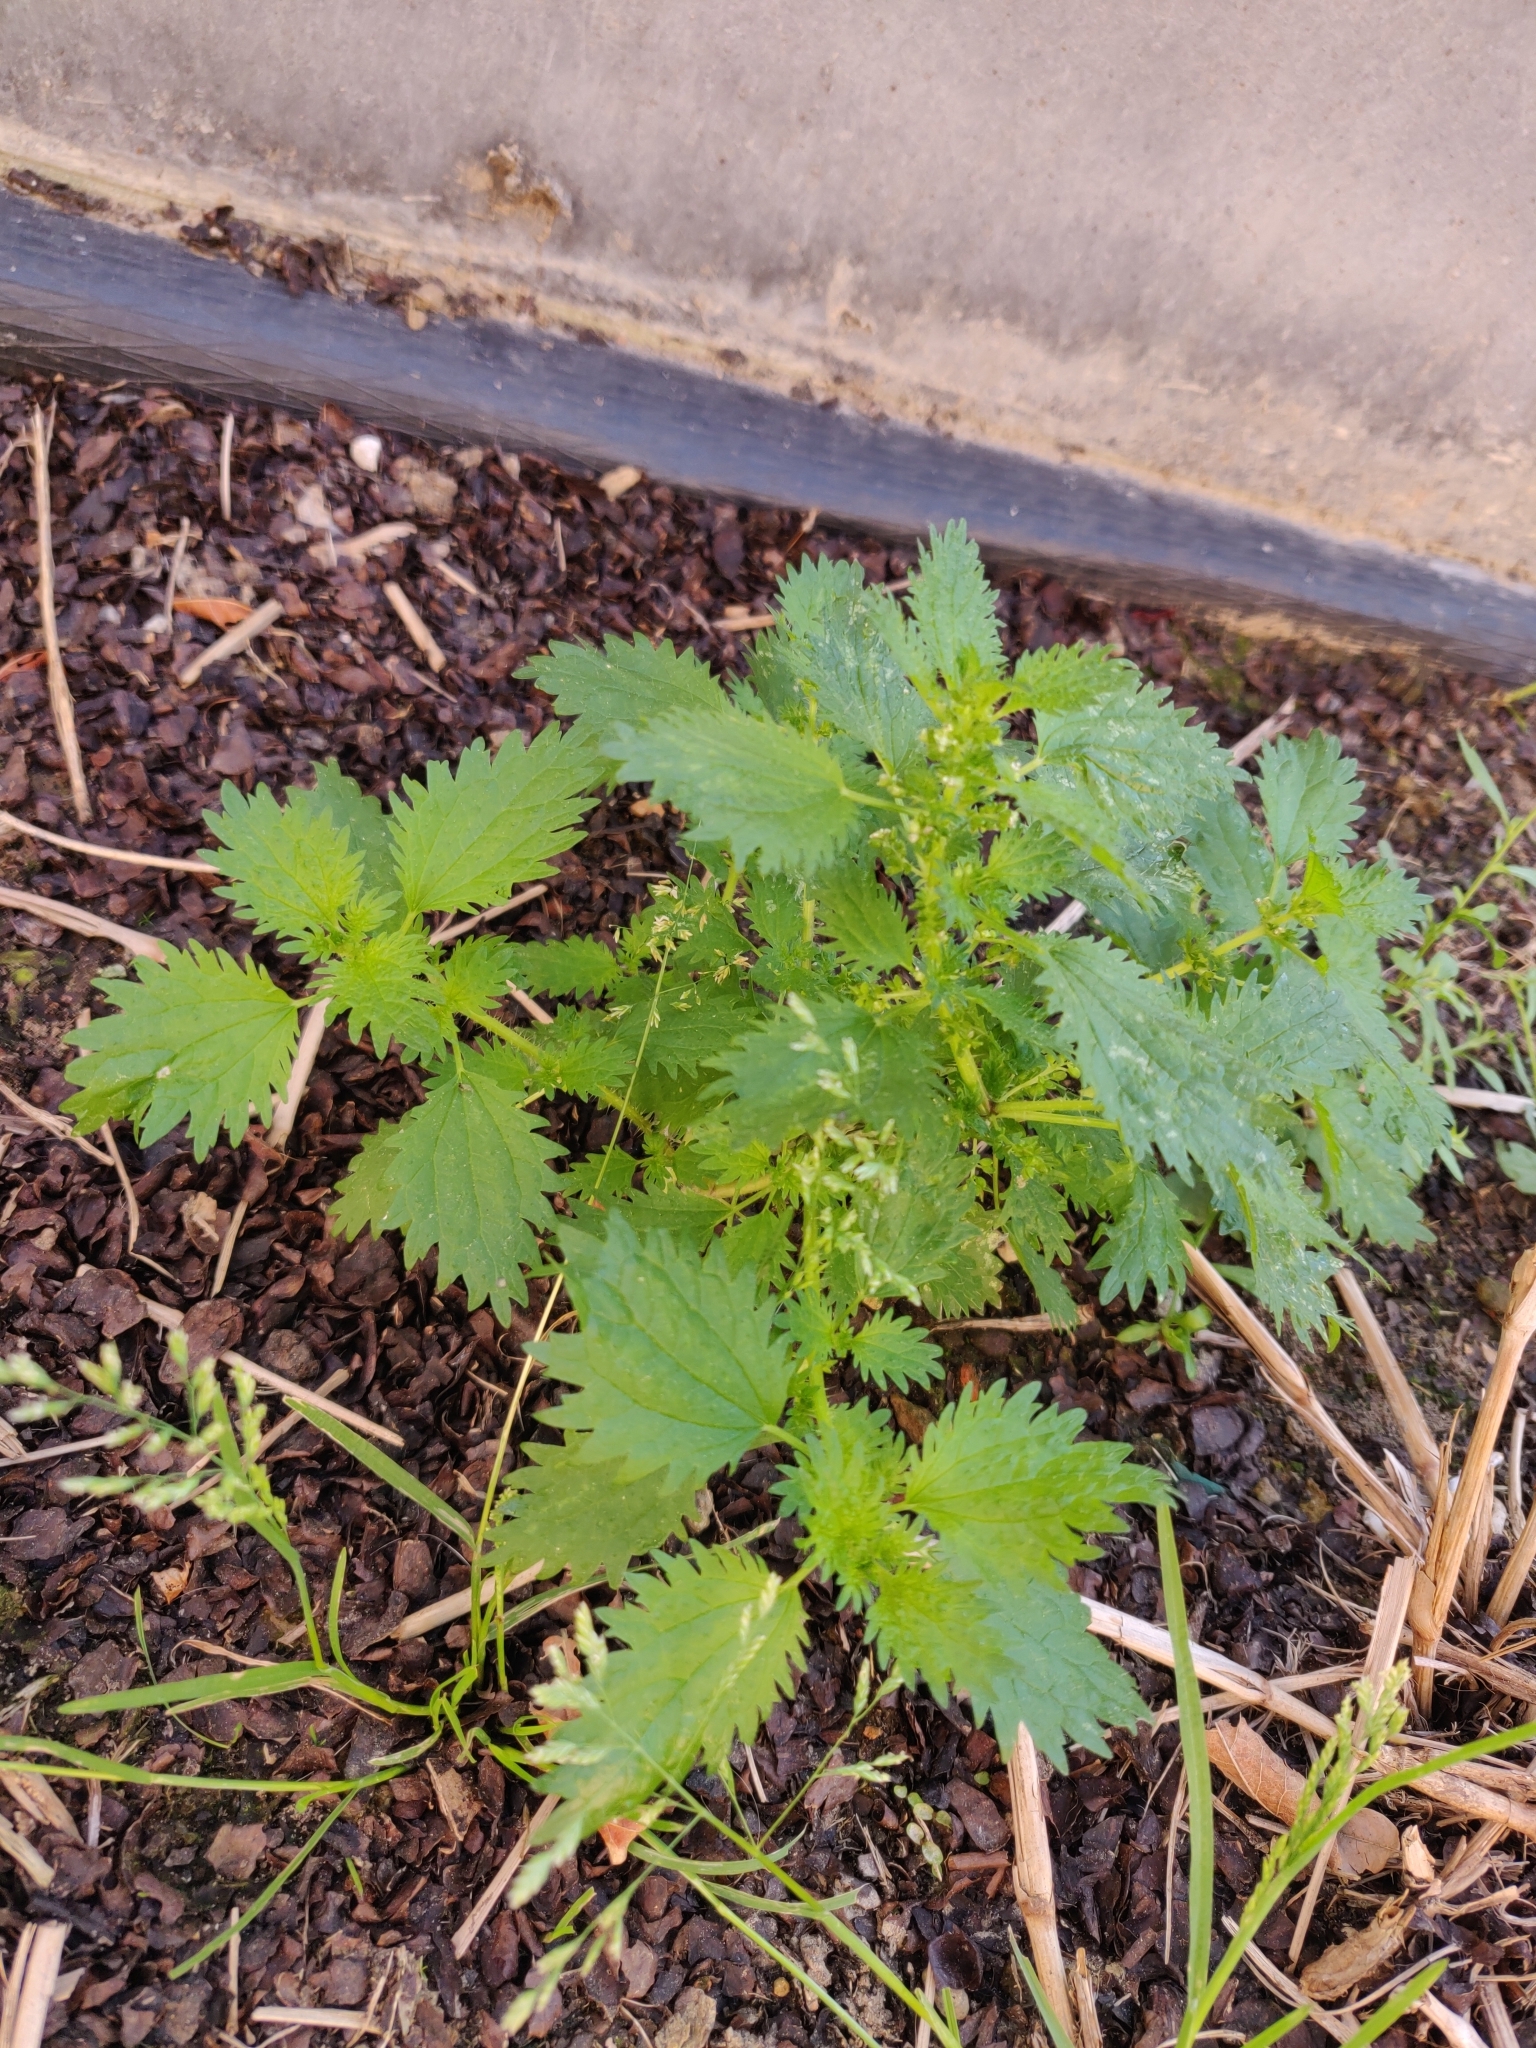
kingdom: Plantae
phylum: Tracheophyta
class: Magnoliopsida
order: Rosales
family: Urticaceae
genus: Urtica
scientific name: Urtica urens
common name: Dwarf nettle
